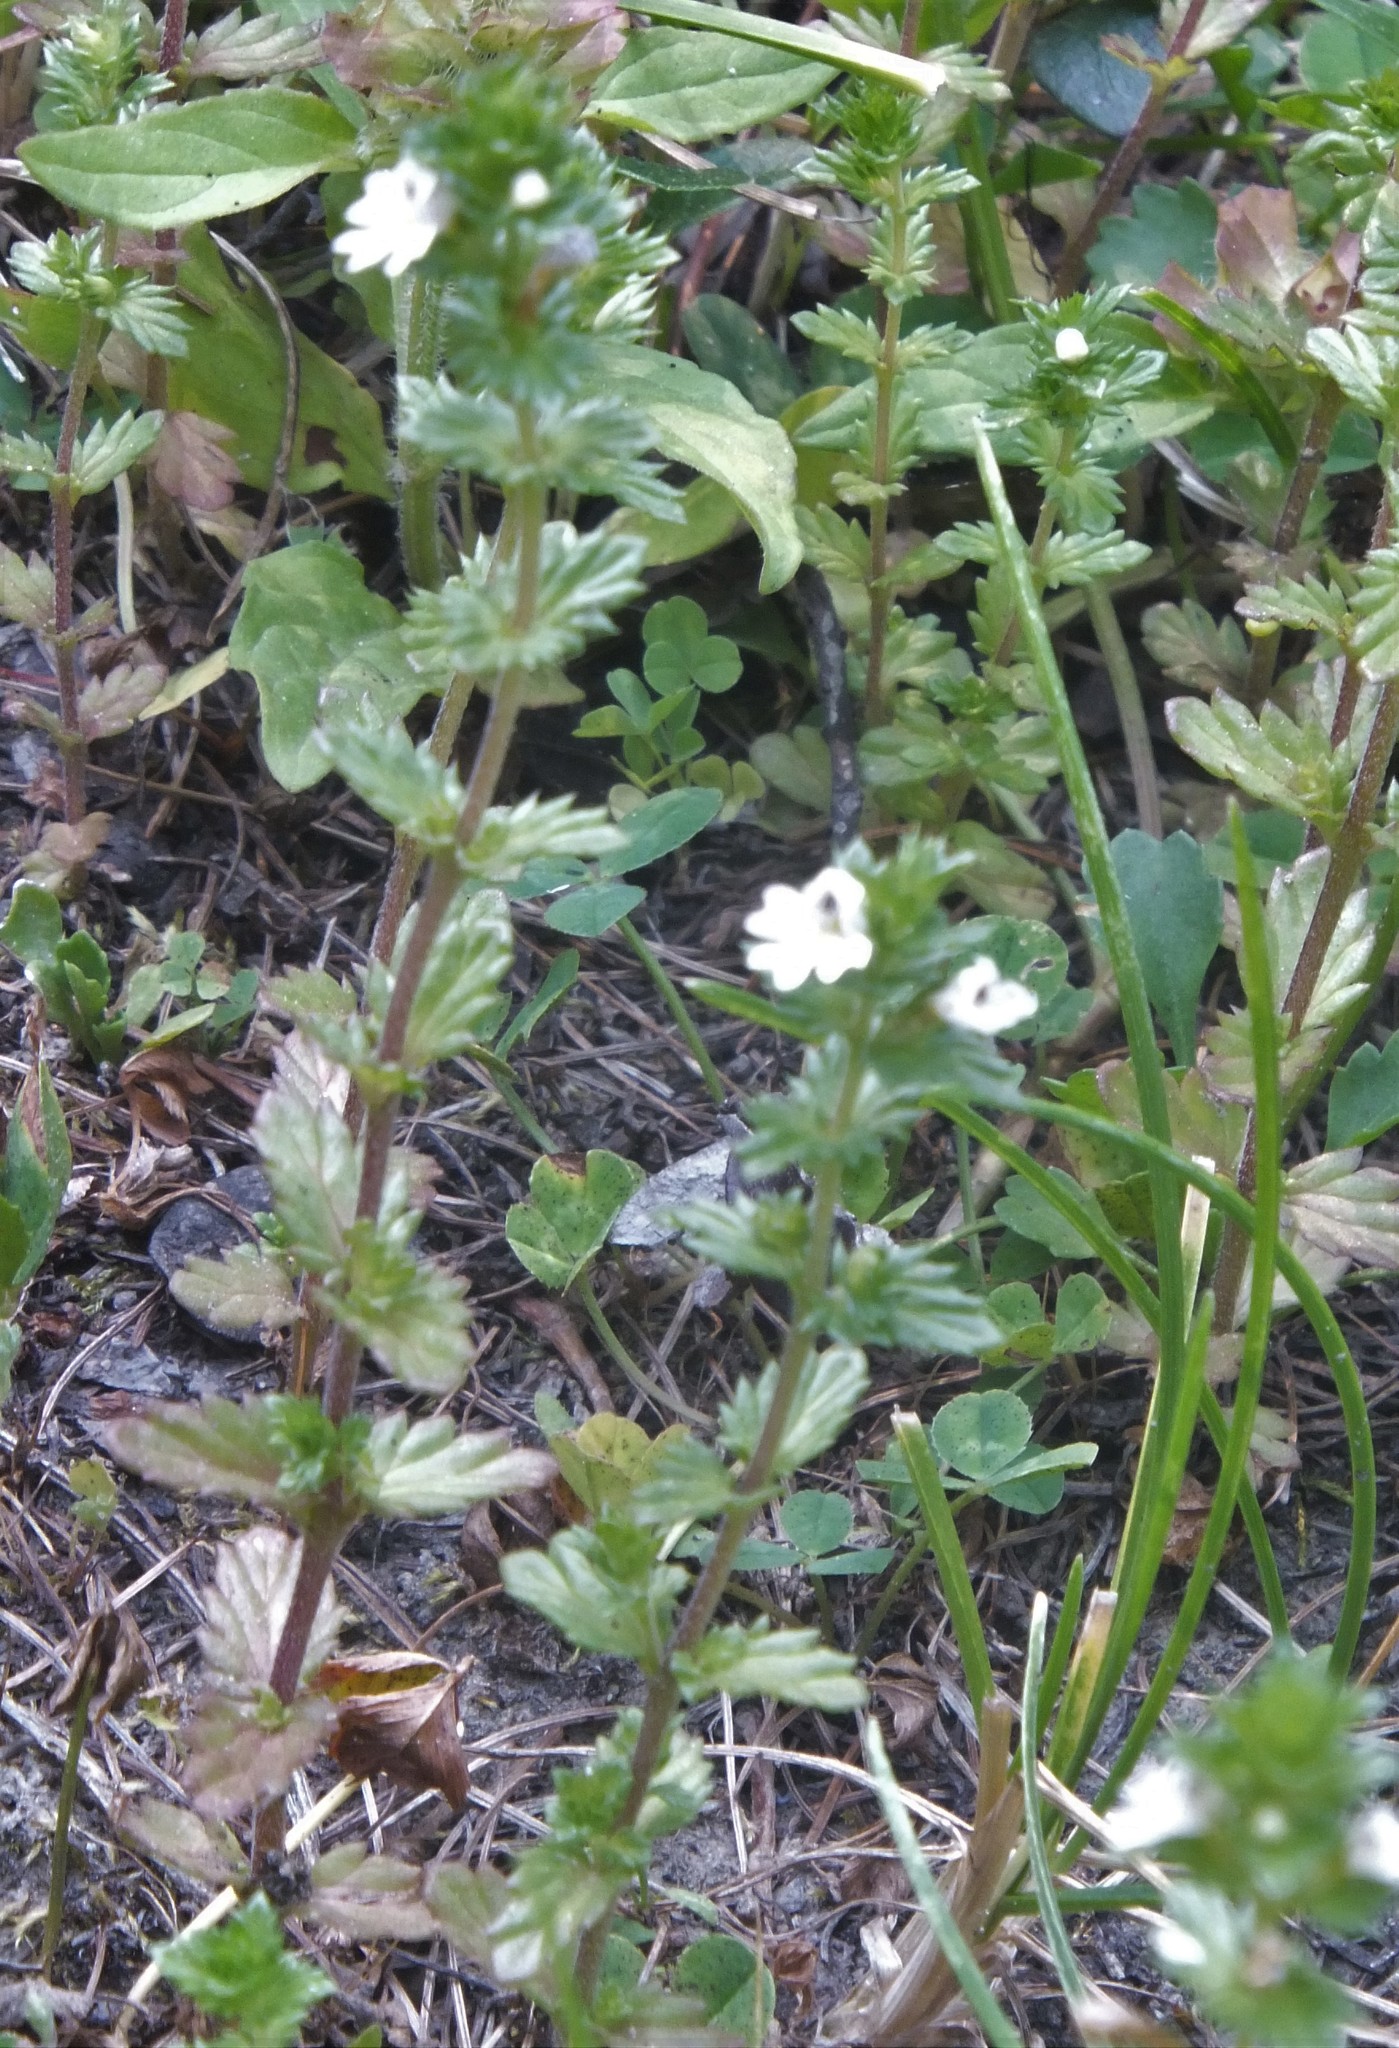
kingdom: Plantae
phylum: Tracheophyta
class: Magnoliopsida
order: Lamiales
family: Orobanchaceae
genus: Euphrasia
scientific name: Euphrasia nemorosa
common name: Common eyebright
